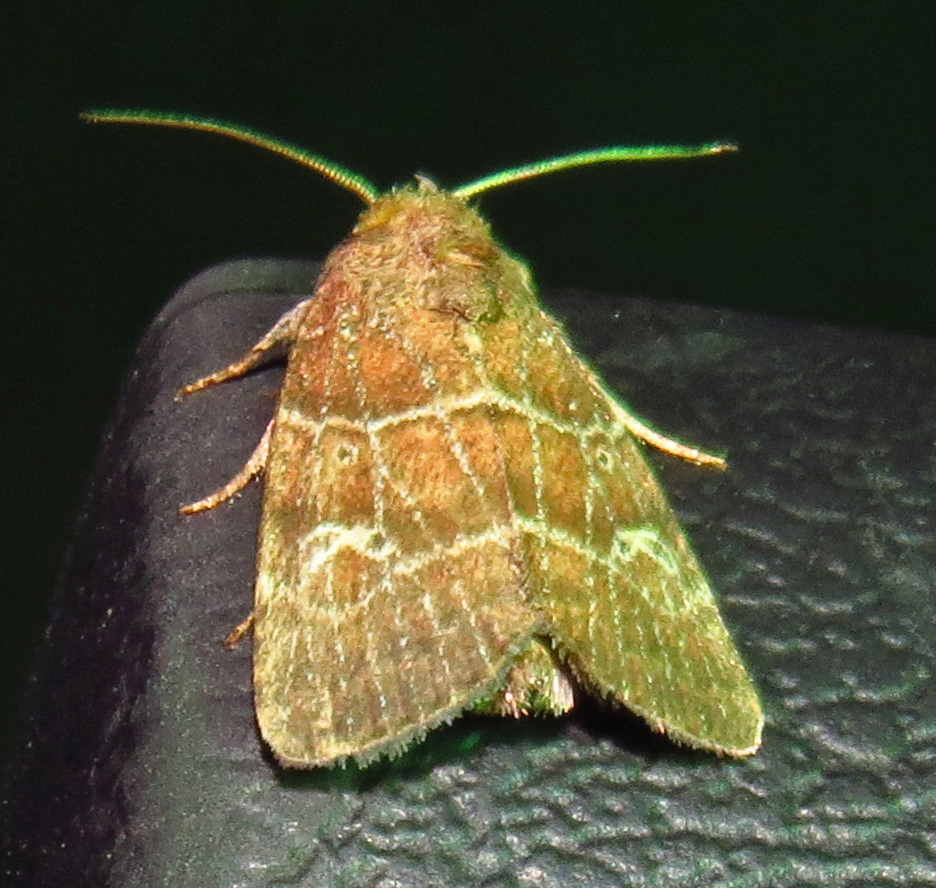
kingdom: Animalia
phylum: Arthropoda
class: Insecta
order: Lepidoptera
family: Noctuidae
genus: Elaphria
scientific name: Elaphria grata
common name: Grateful midget moth
